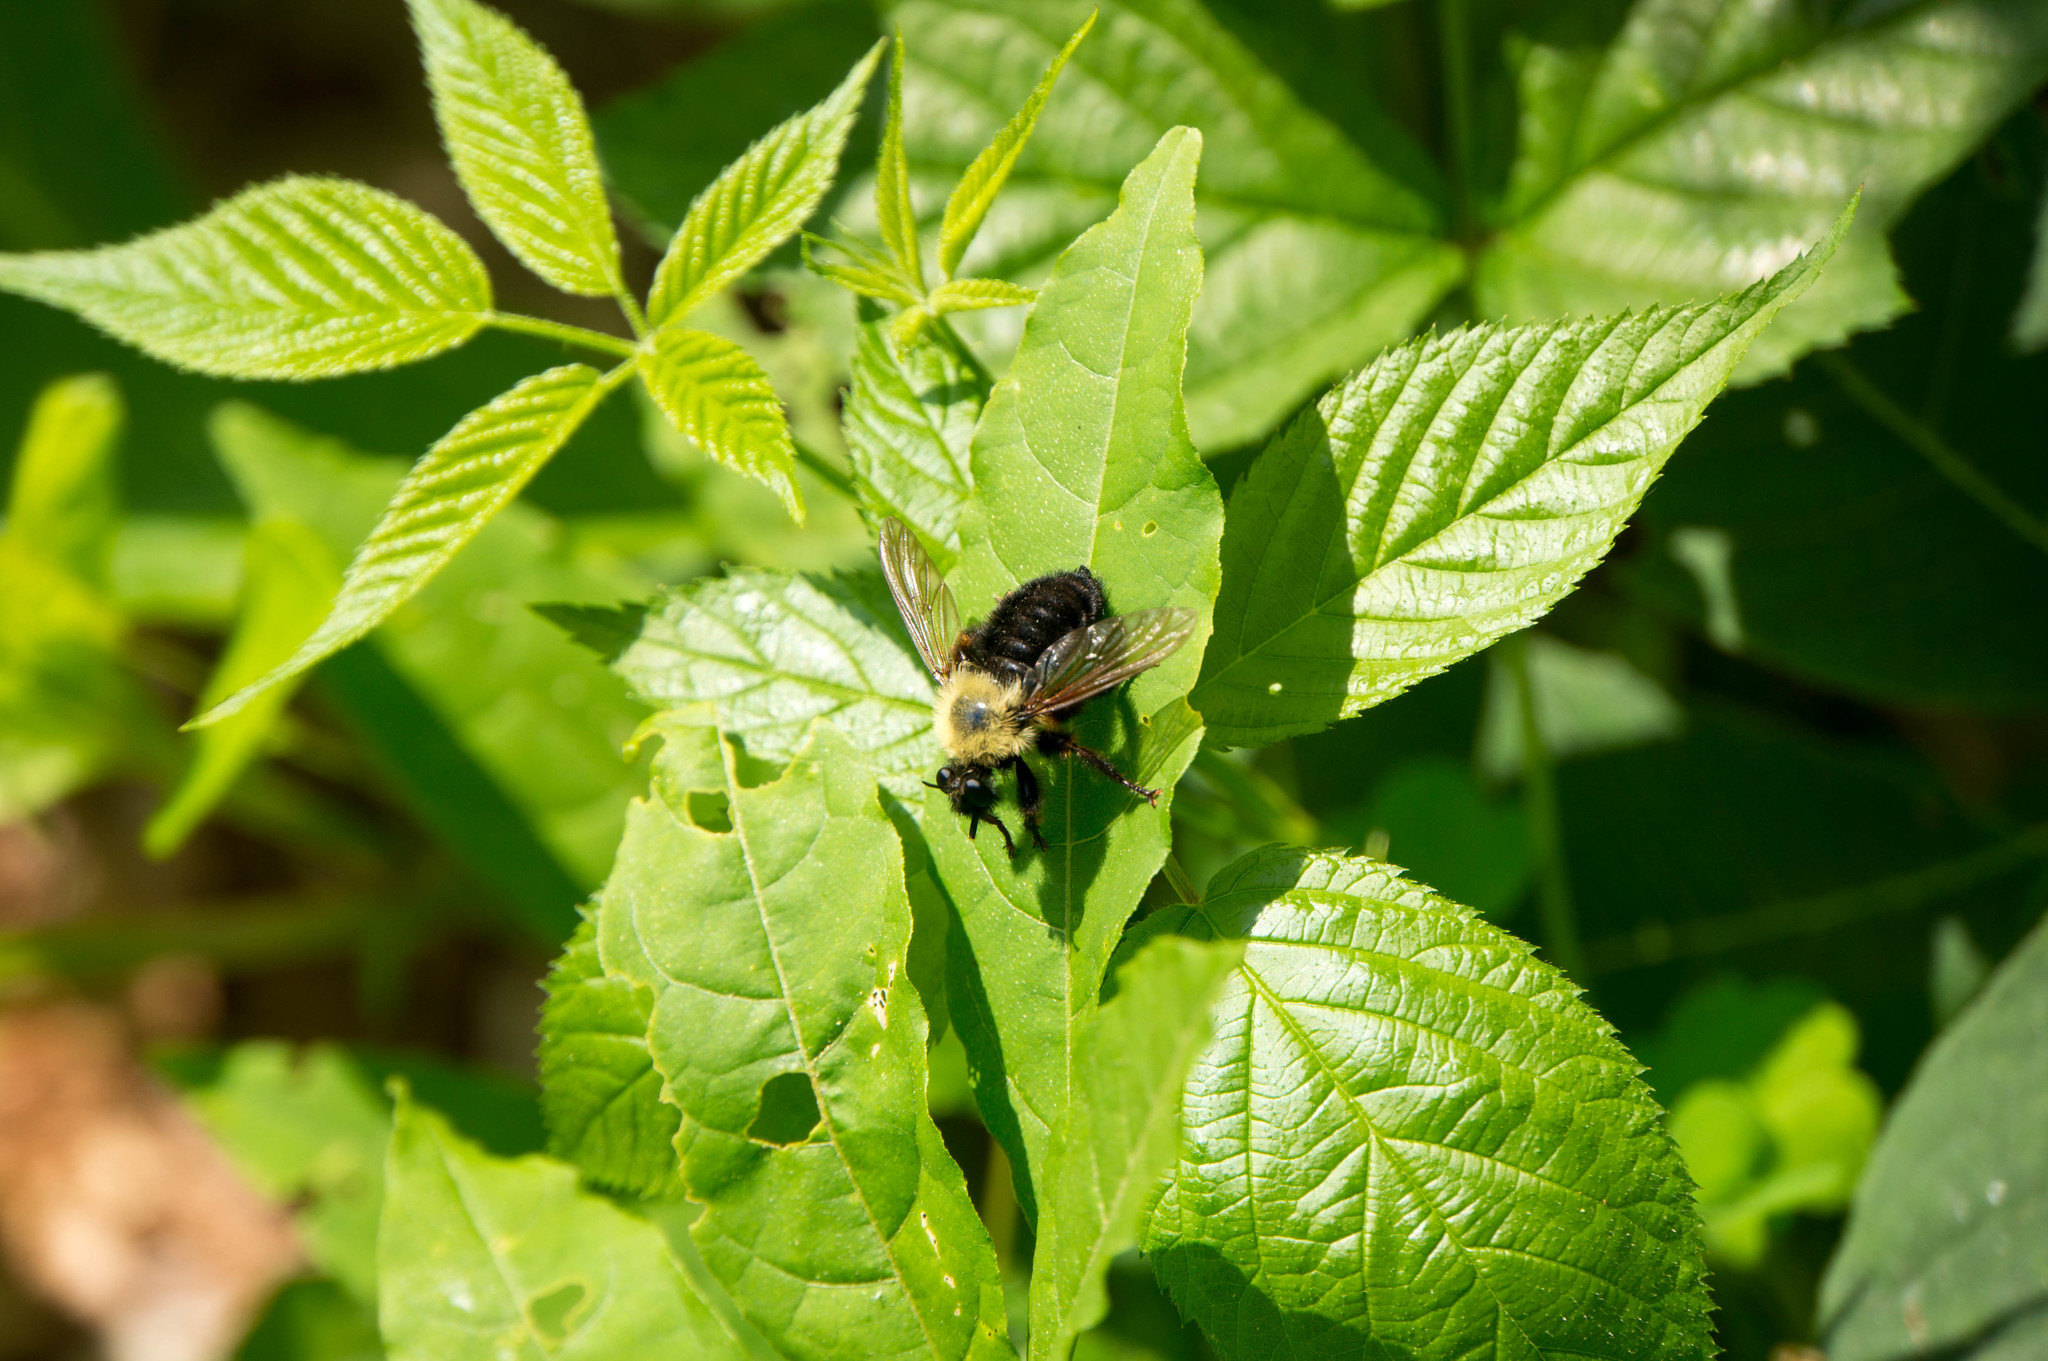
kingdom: Animalia
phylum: Arthropoda
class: Insecta
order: Diptera
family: Asilidae
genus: Laphria
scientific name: Laphria thoracica
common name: Bumble bee mimic robber fly
